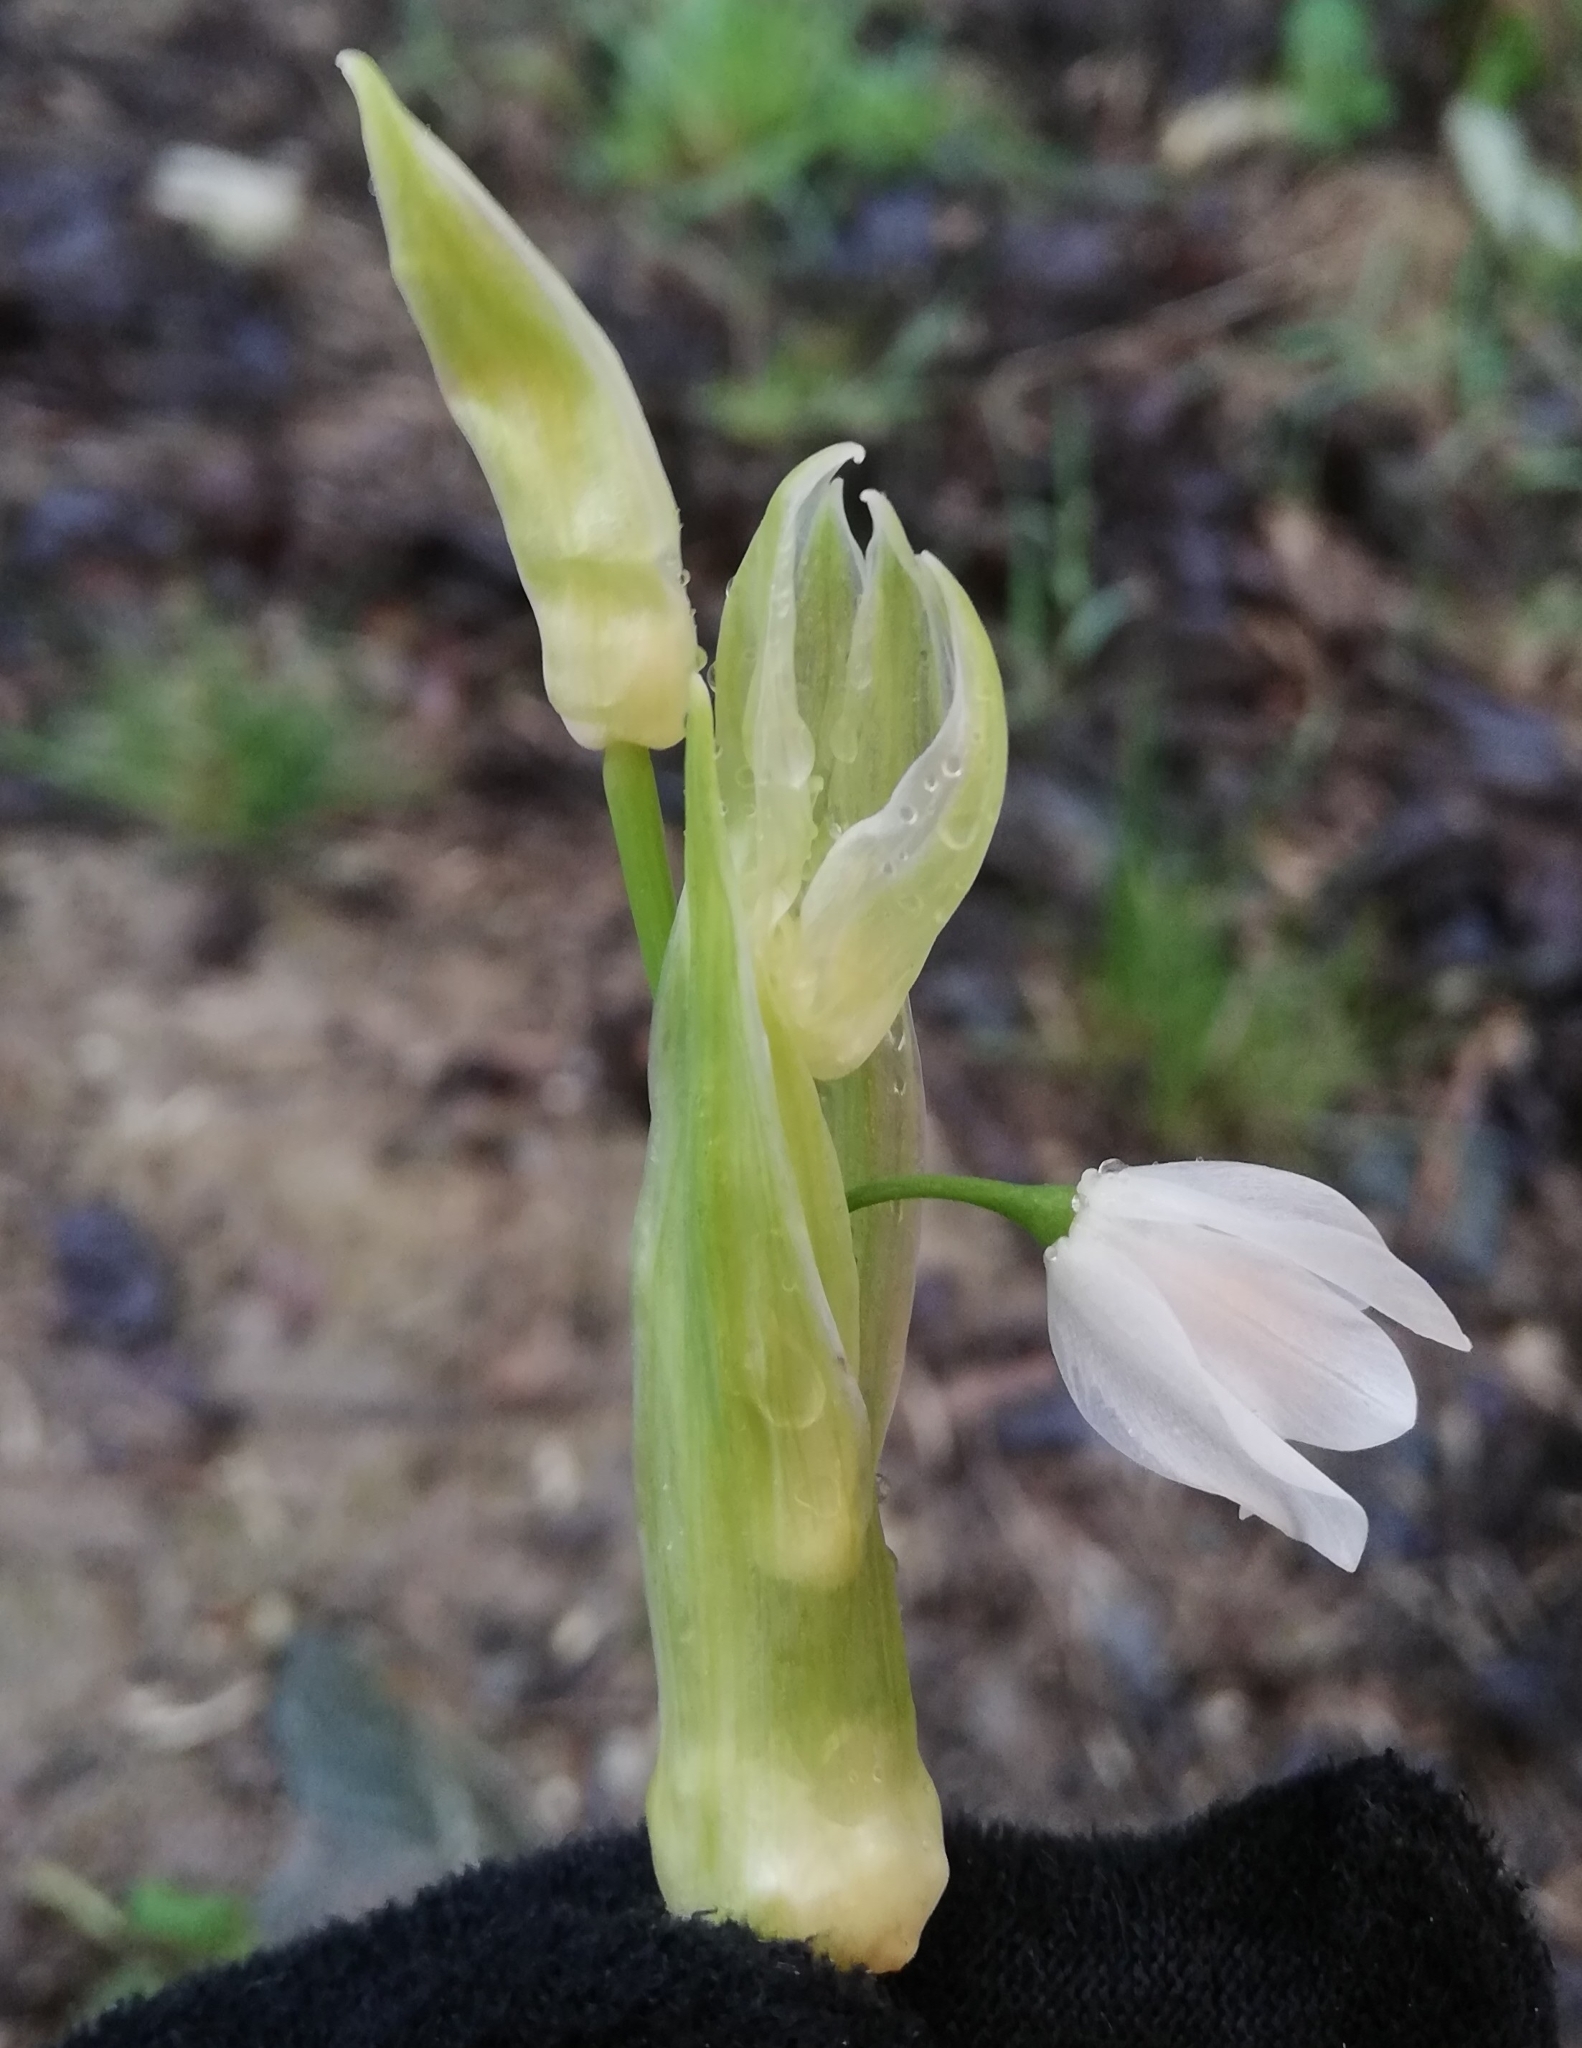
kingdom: Plantae
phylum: Tracheophyta
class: Liliopsida
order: Asparagales
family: Amaryllidaceae
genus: Allium
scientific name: Allium paradoxum
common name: Few-flowered garlic
